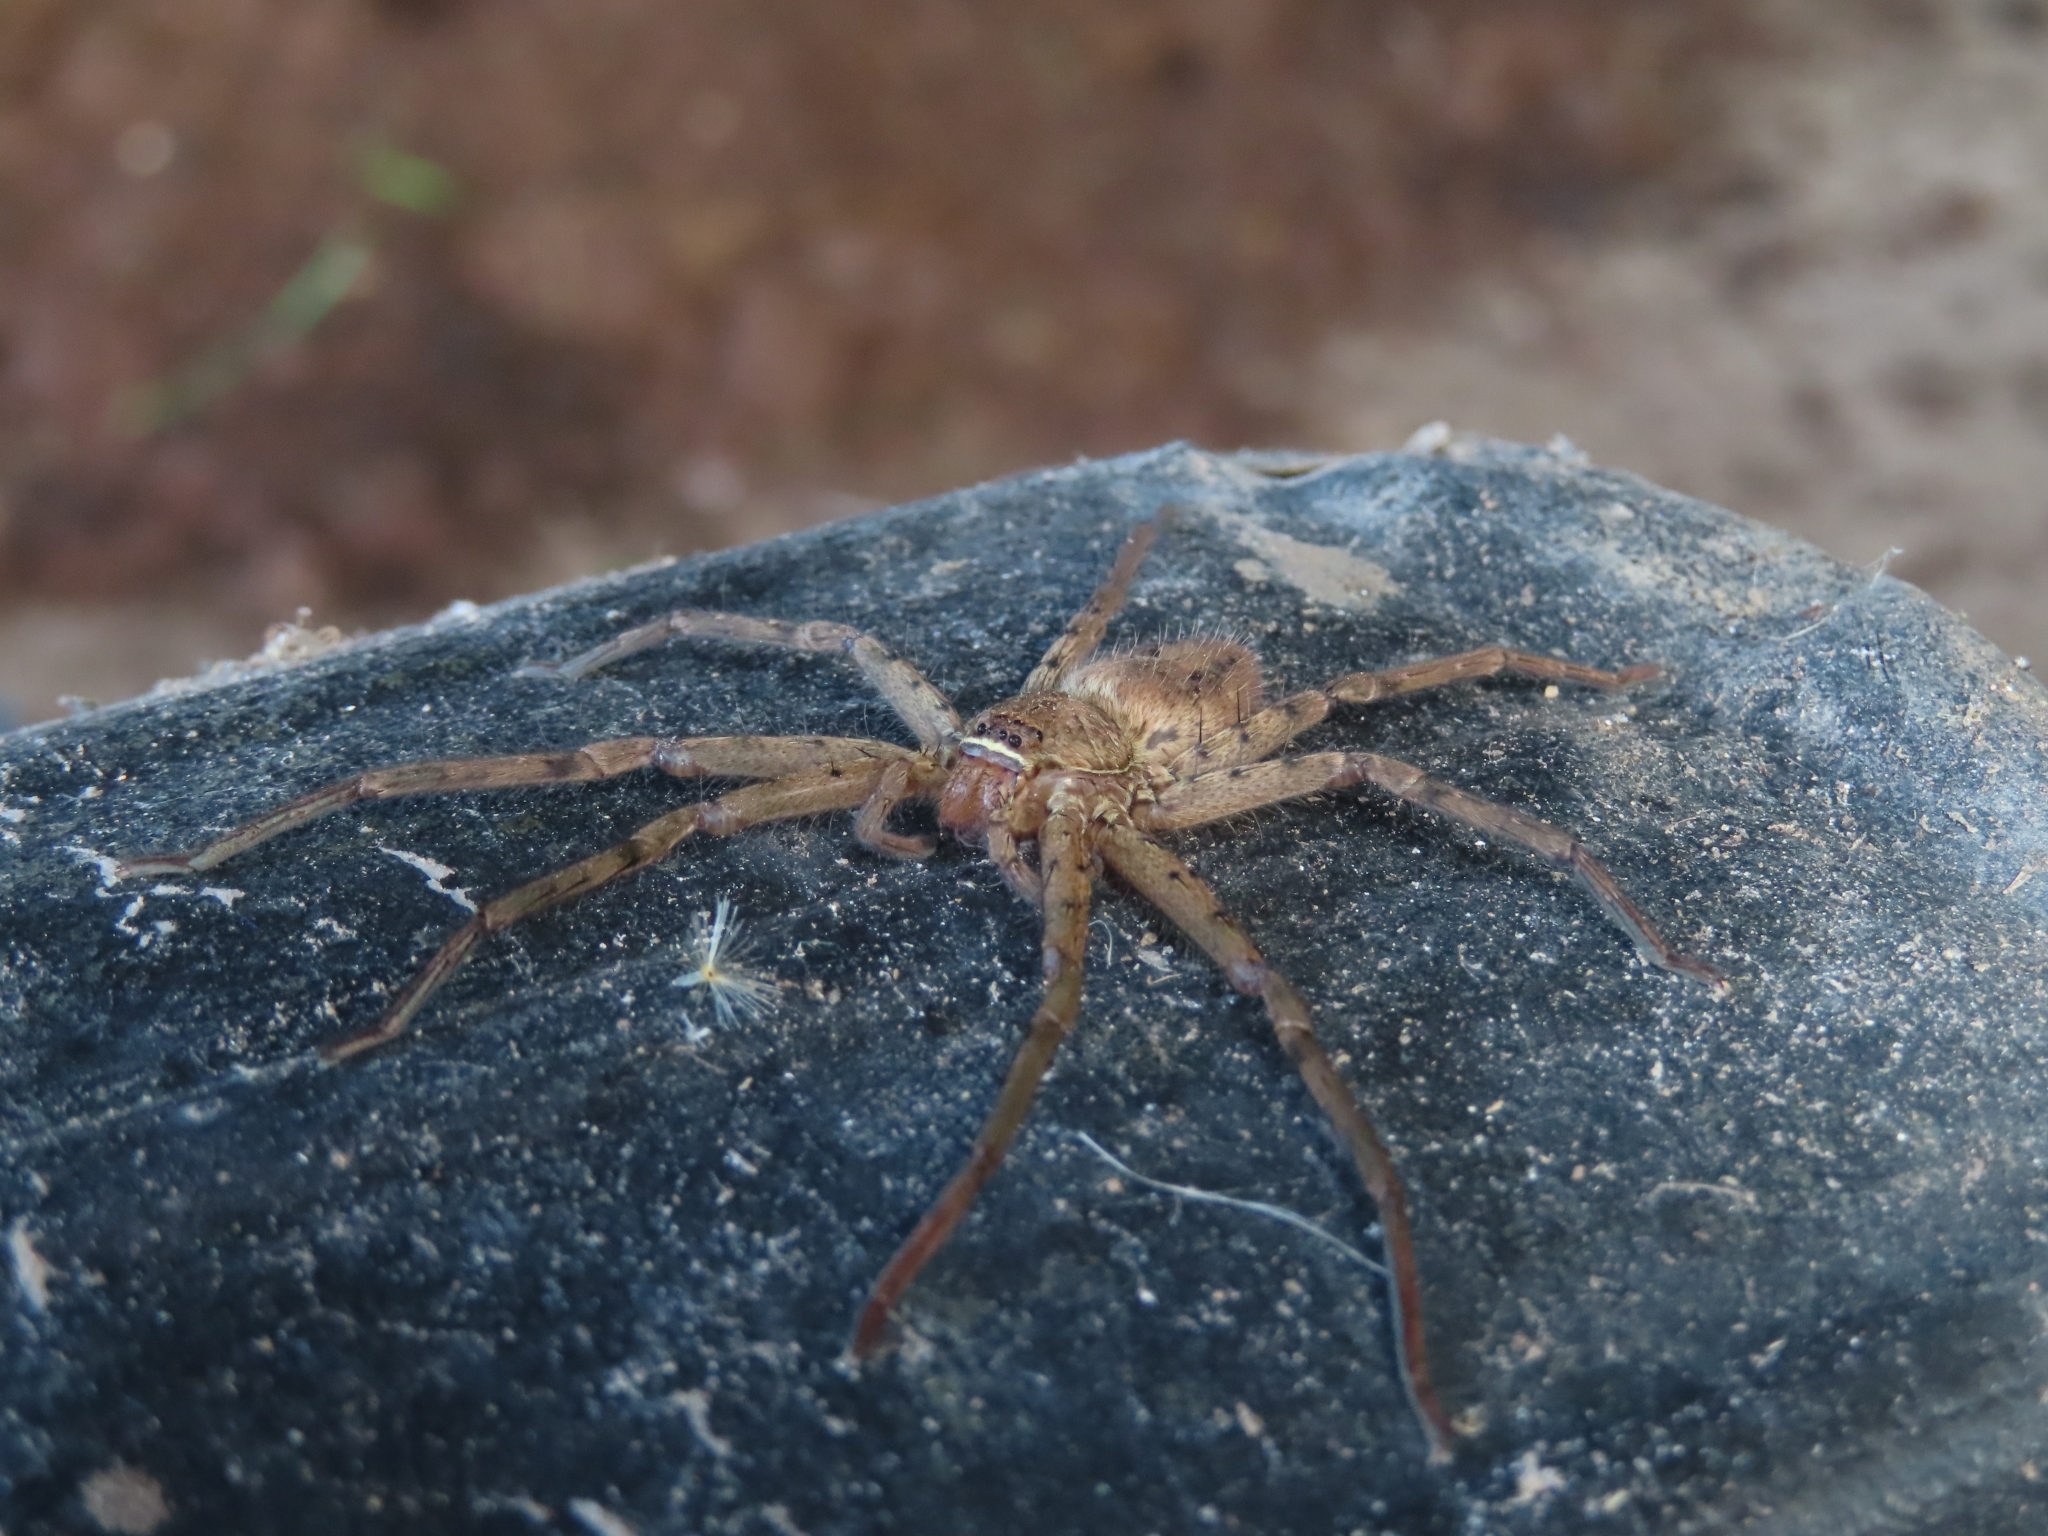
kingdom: Animalia
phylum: Arthropoda
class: Arachnida
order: Araneae
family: Sparassidae
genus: Heteropoda
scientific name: Heteropoda venatoria
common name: Huntsman spider
